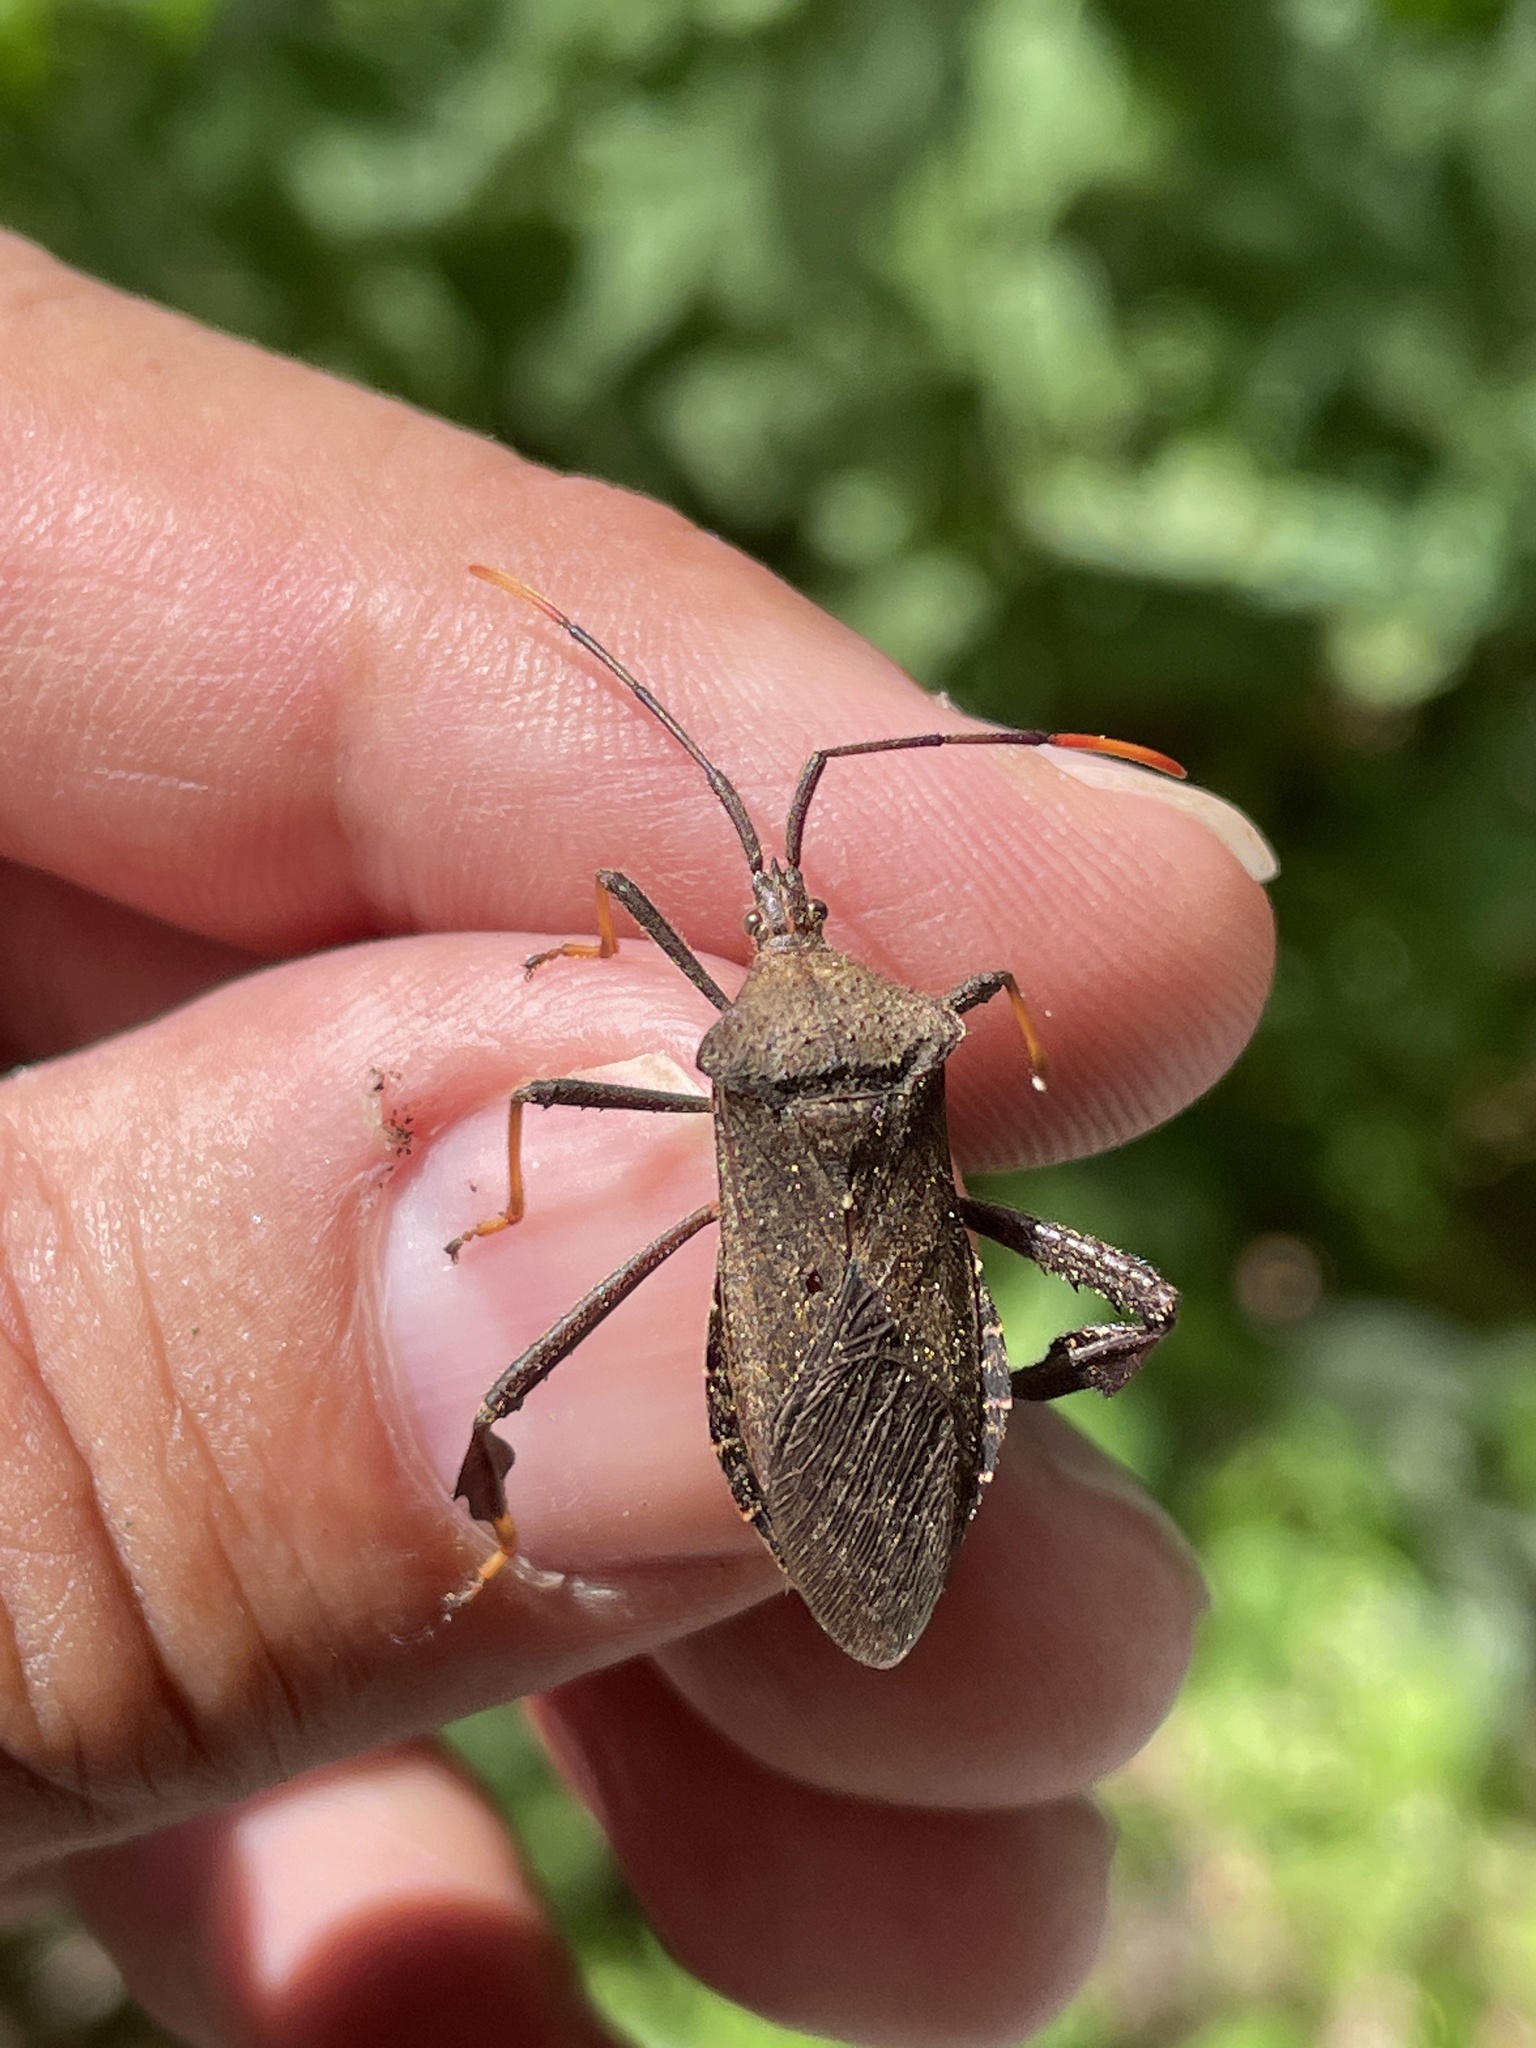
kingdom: Animalia
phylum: Arthropoda
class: Insecta
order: Hemiptera
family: Coreidae
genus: Acanthocephala
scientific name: Acanthocephala terminalis
